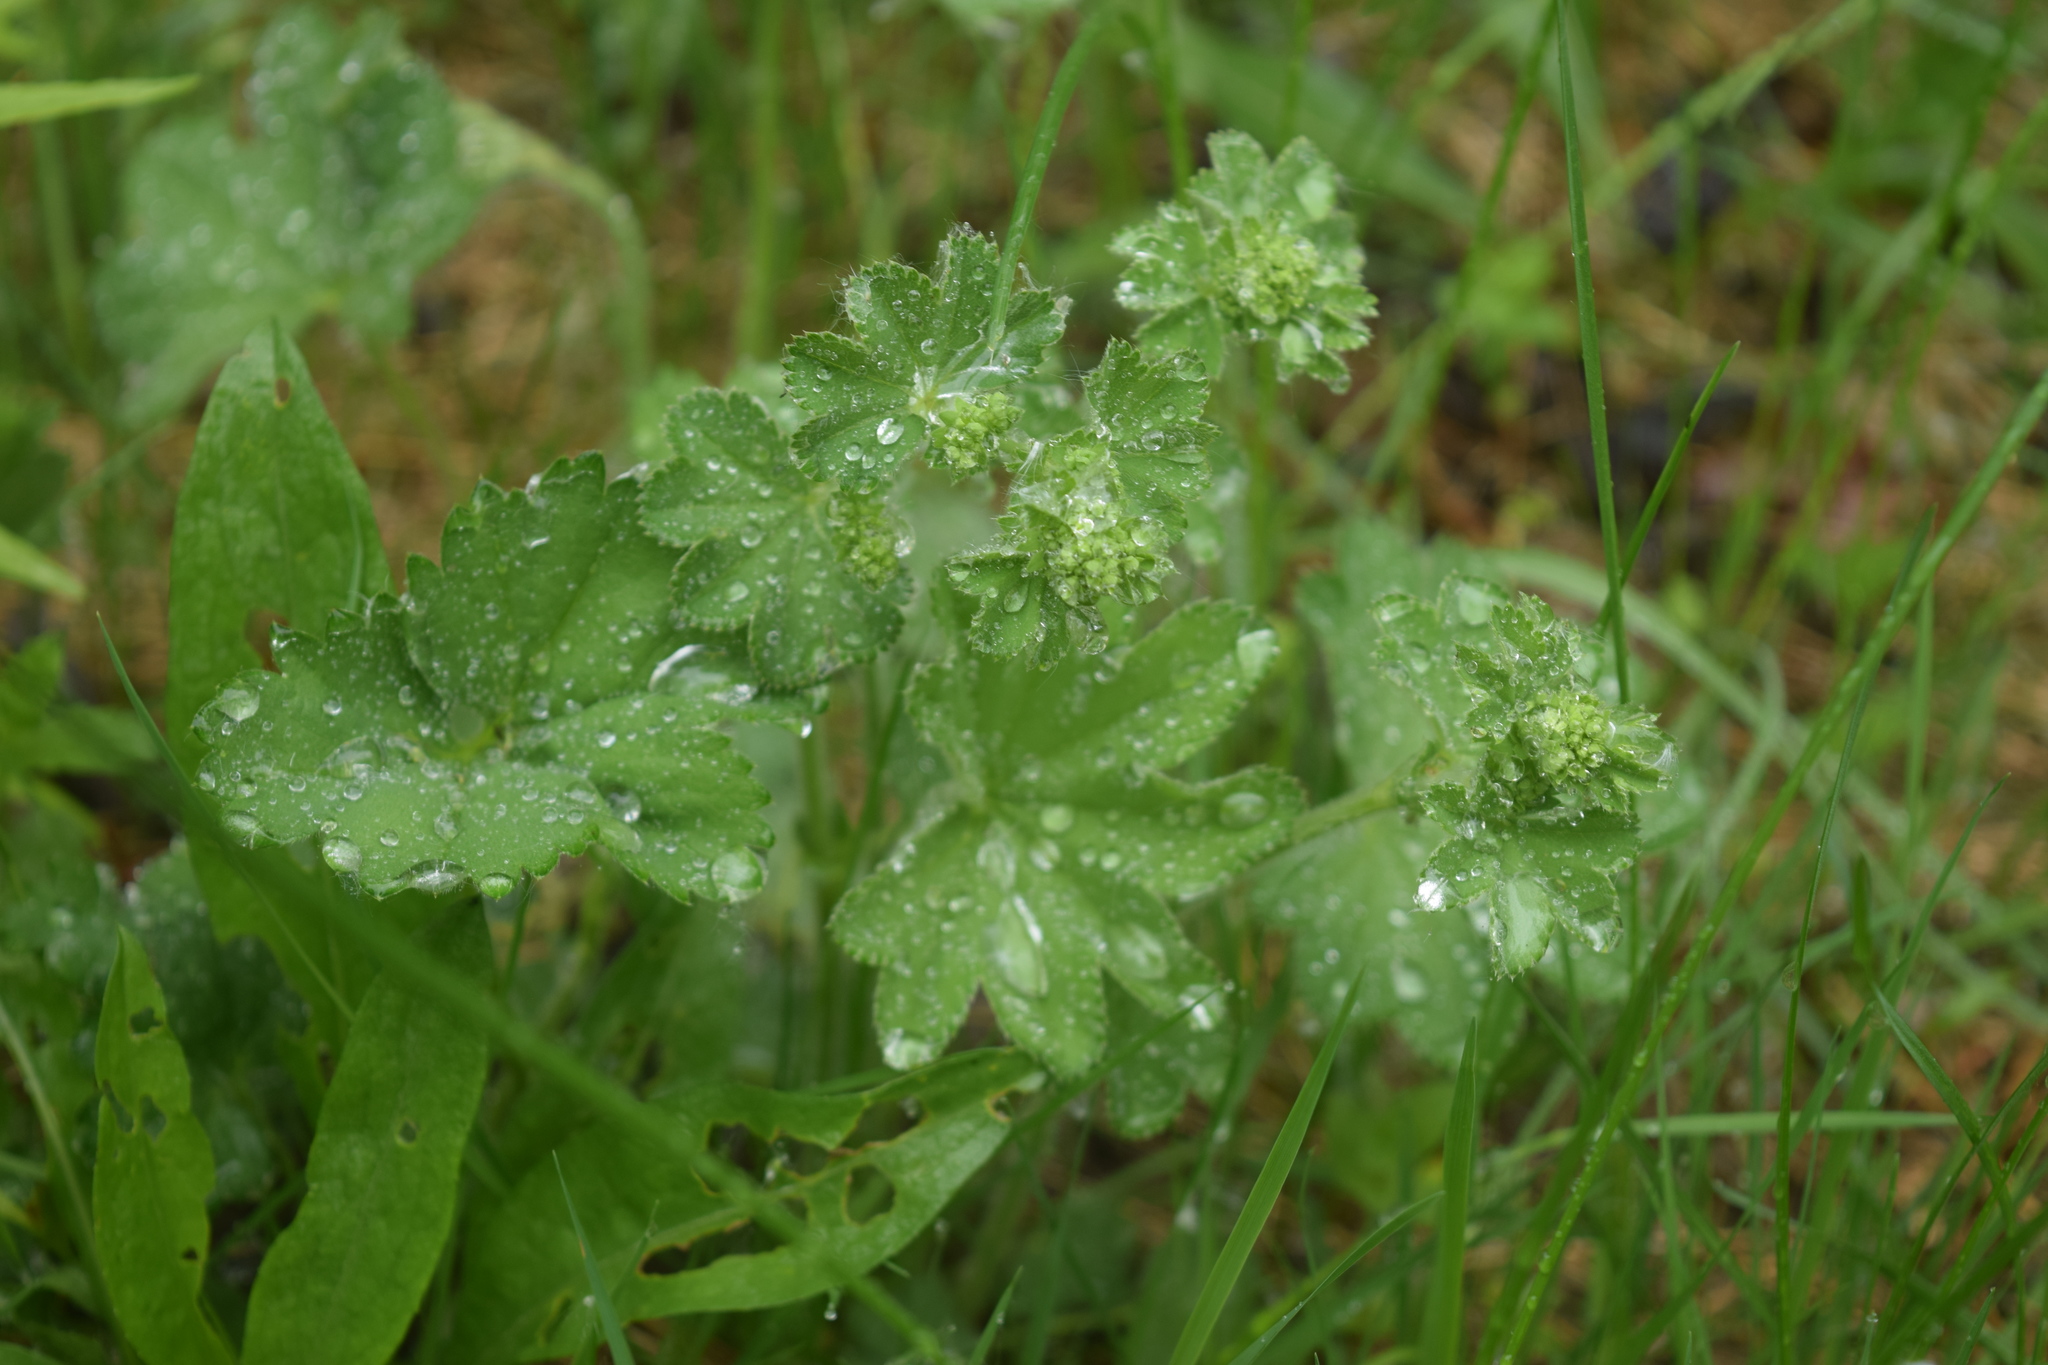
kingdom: Plantae
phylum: Tracheophyta
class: Magnoliopsida
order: Rosales
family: Rosaceae
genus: Alchemilla
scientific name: Alchemilla
